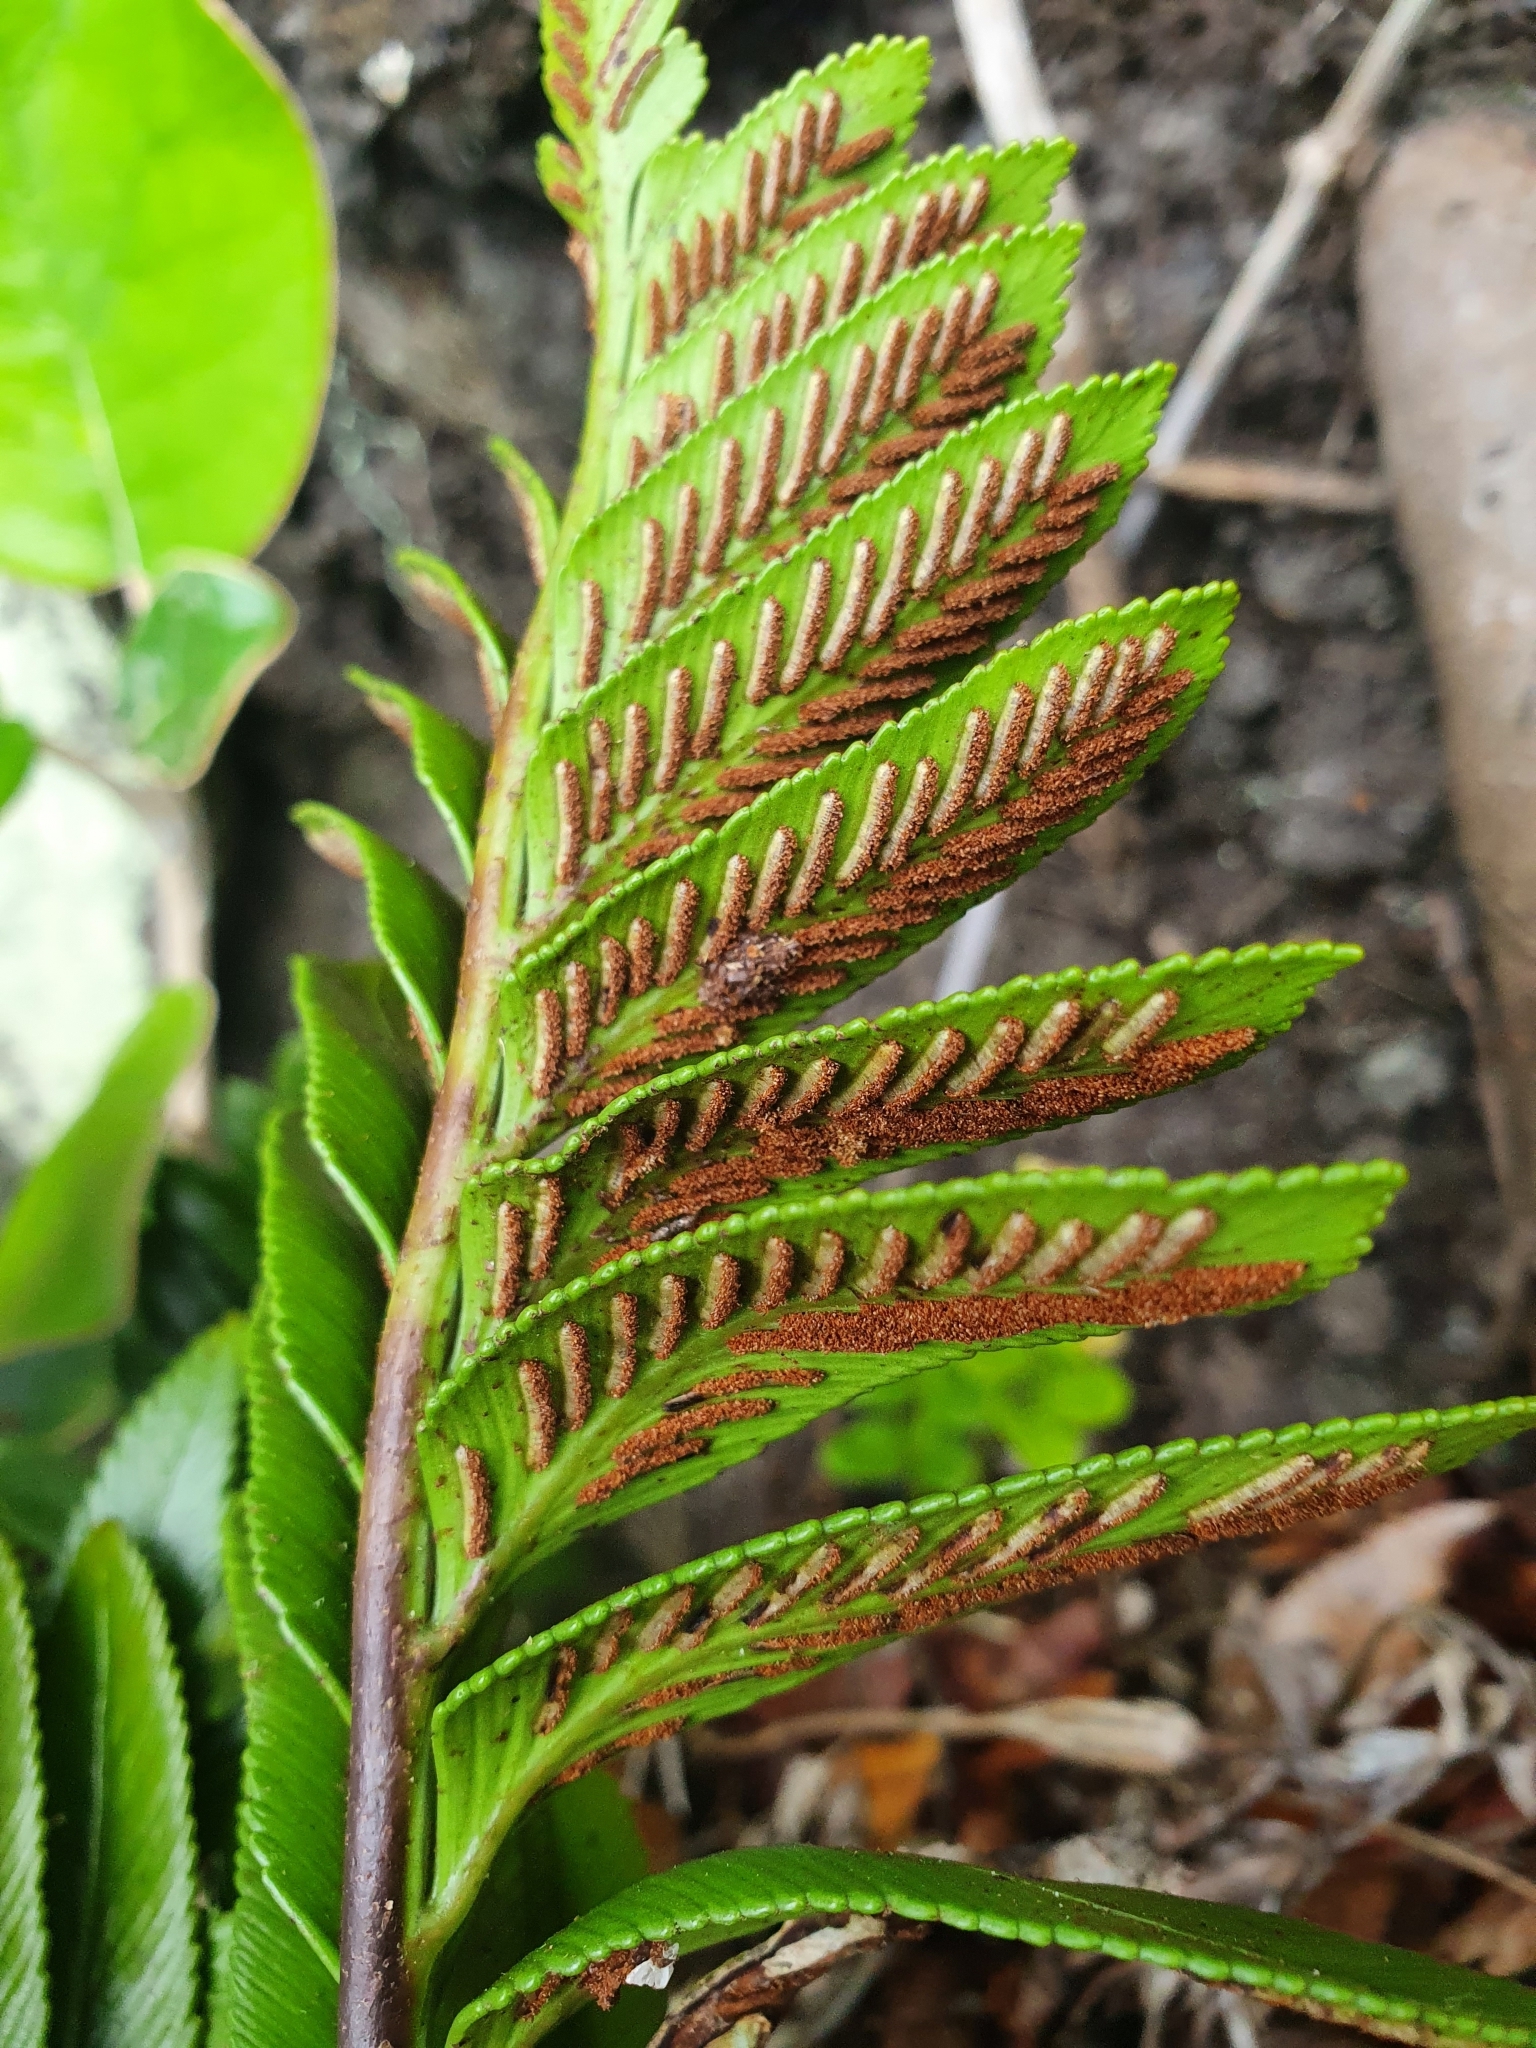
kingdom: Plantae
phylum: Tracheophyta
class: Polypodiopsida
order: Polypodiales
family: Aspleniaceae
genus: Asplenium
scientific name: Asplenium obtusatum
